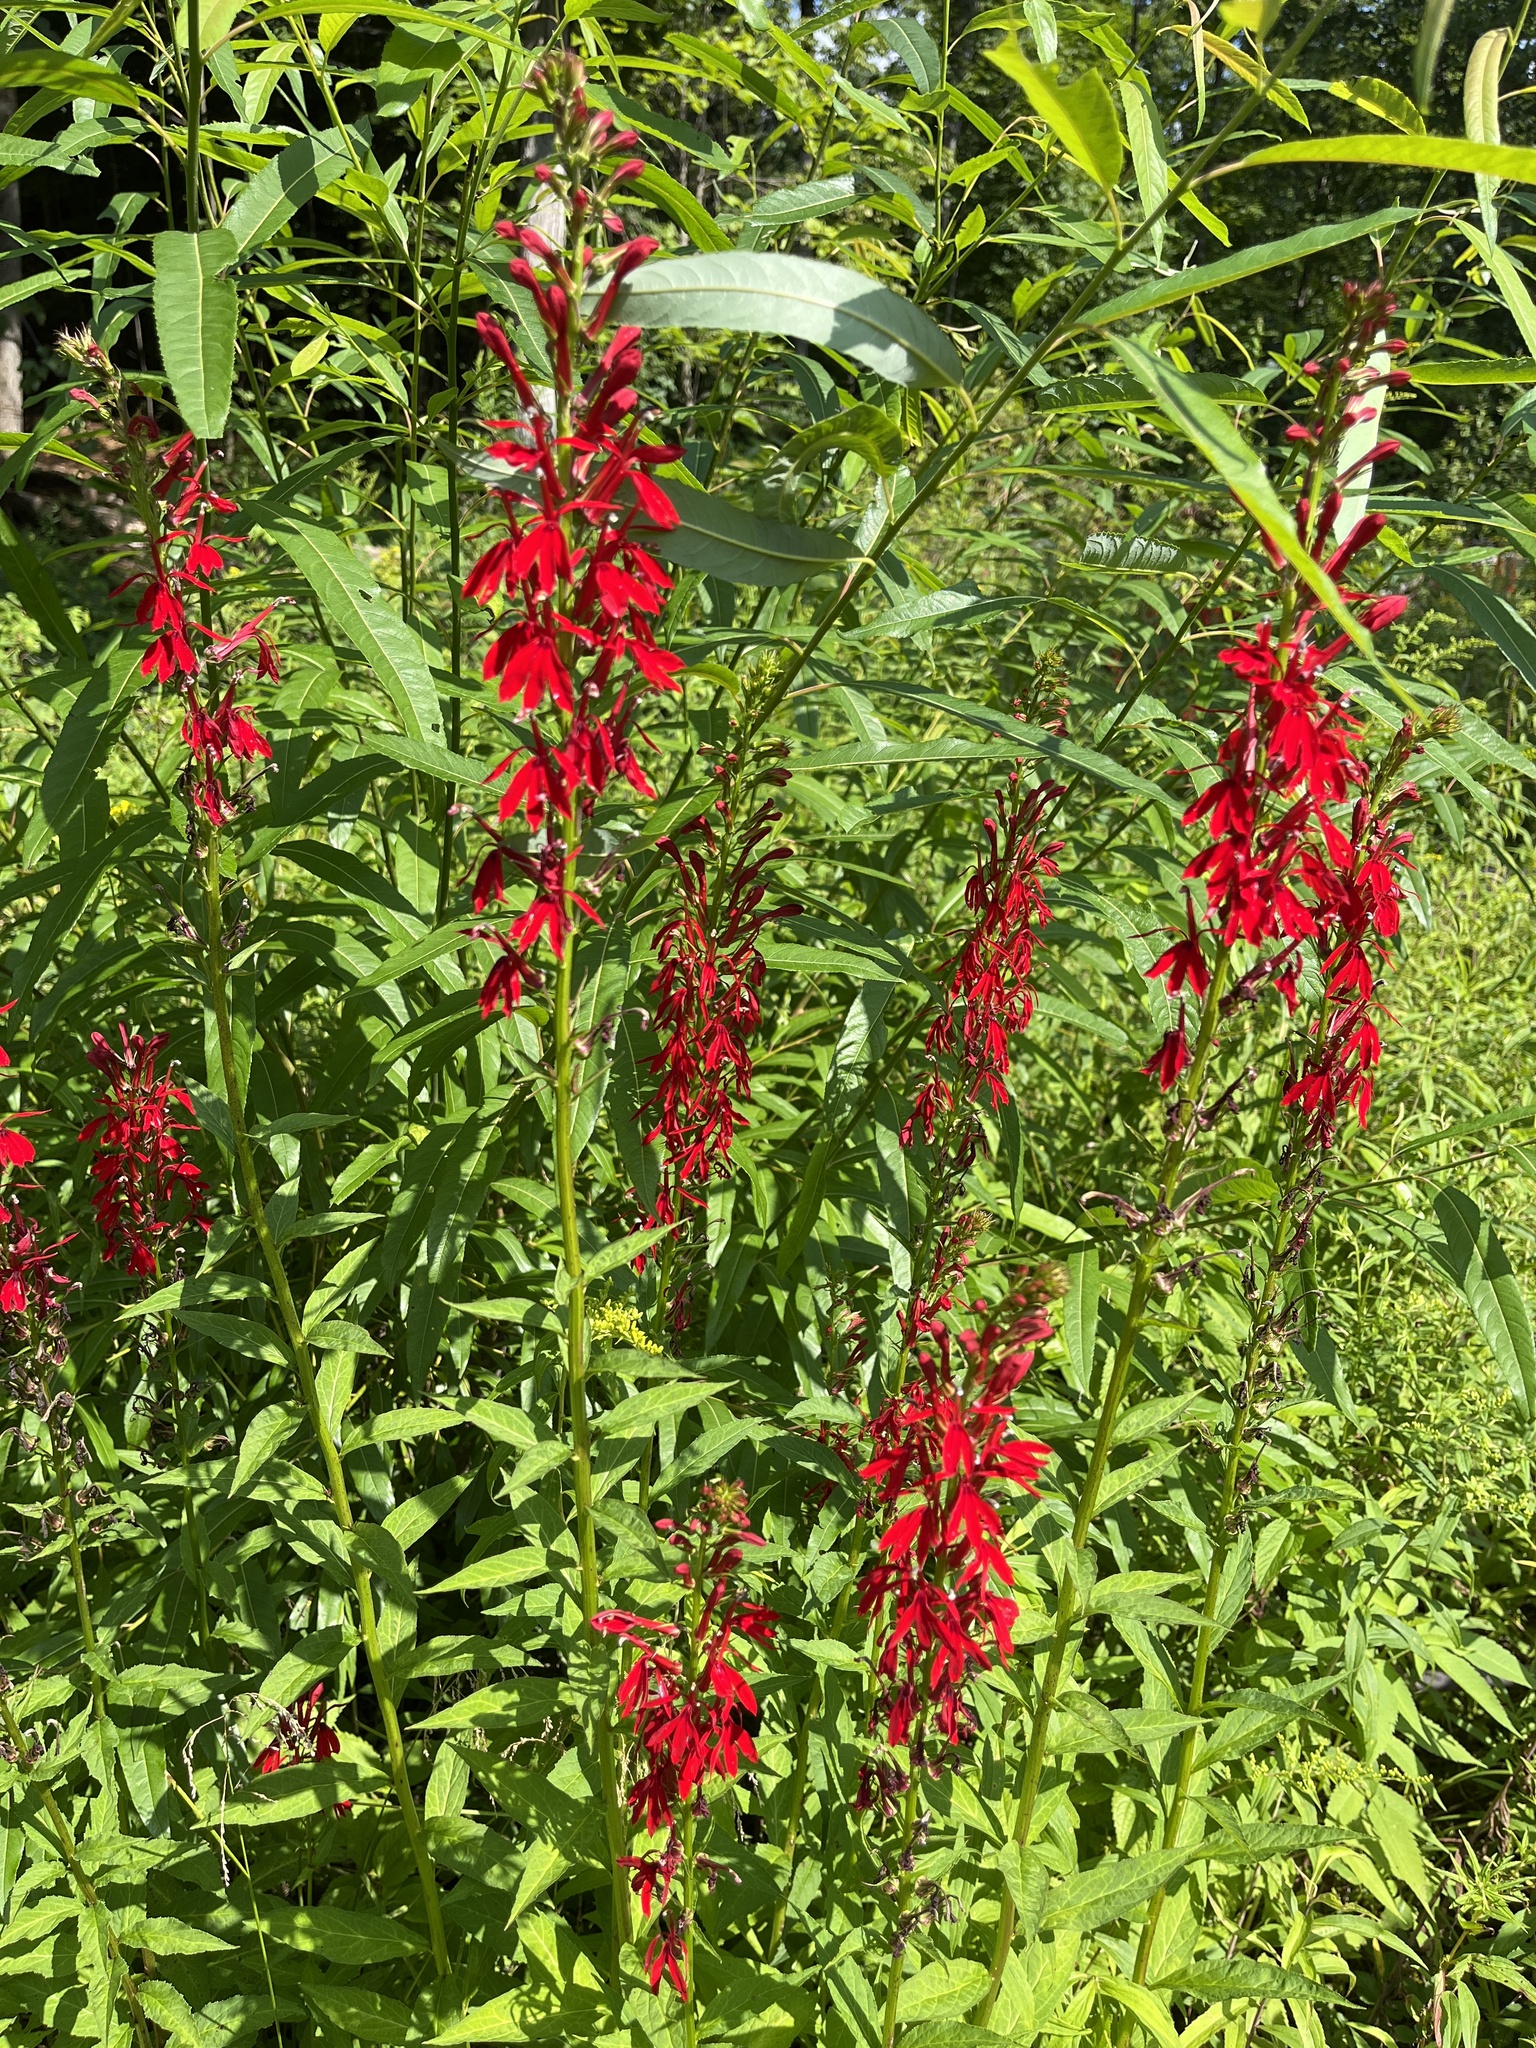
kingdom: Plantae
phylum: Tracheophyta
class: Magnoliopsida
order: Asterales
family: Campanulaceae
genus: Lobelia
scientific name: Lobelia cardinalis
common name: Cardinal flower
